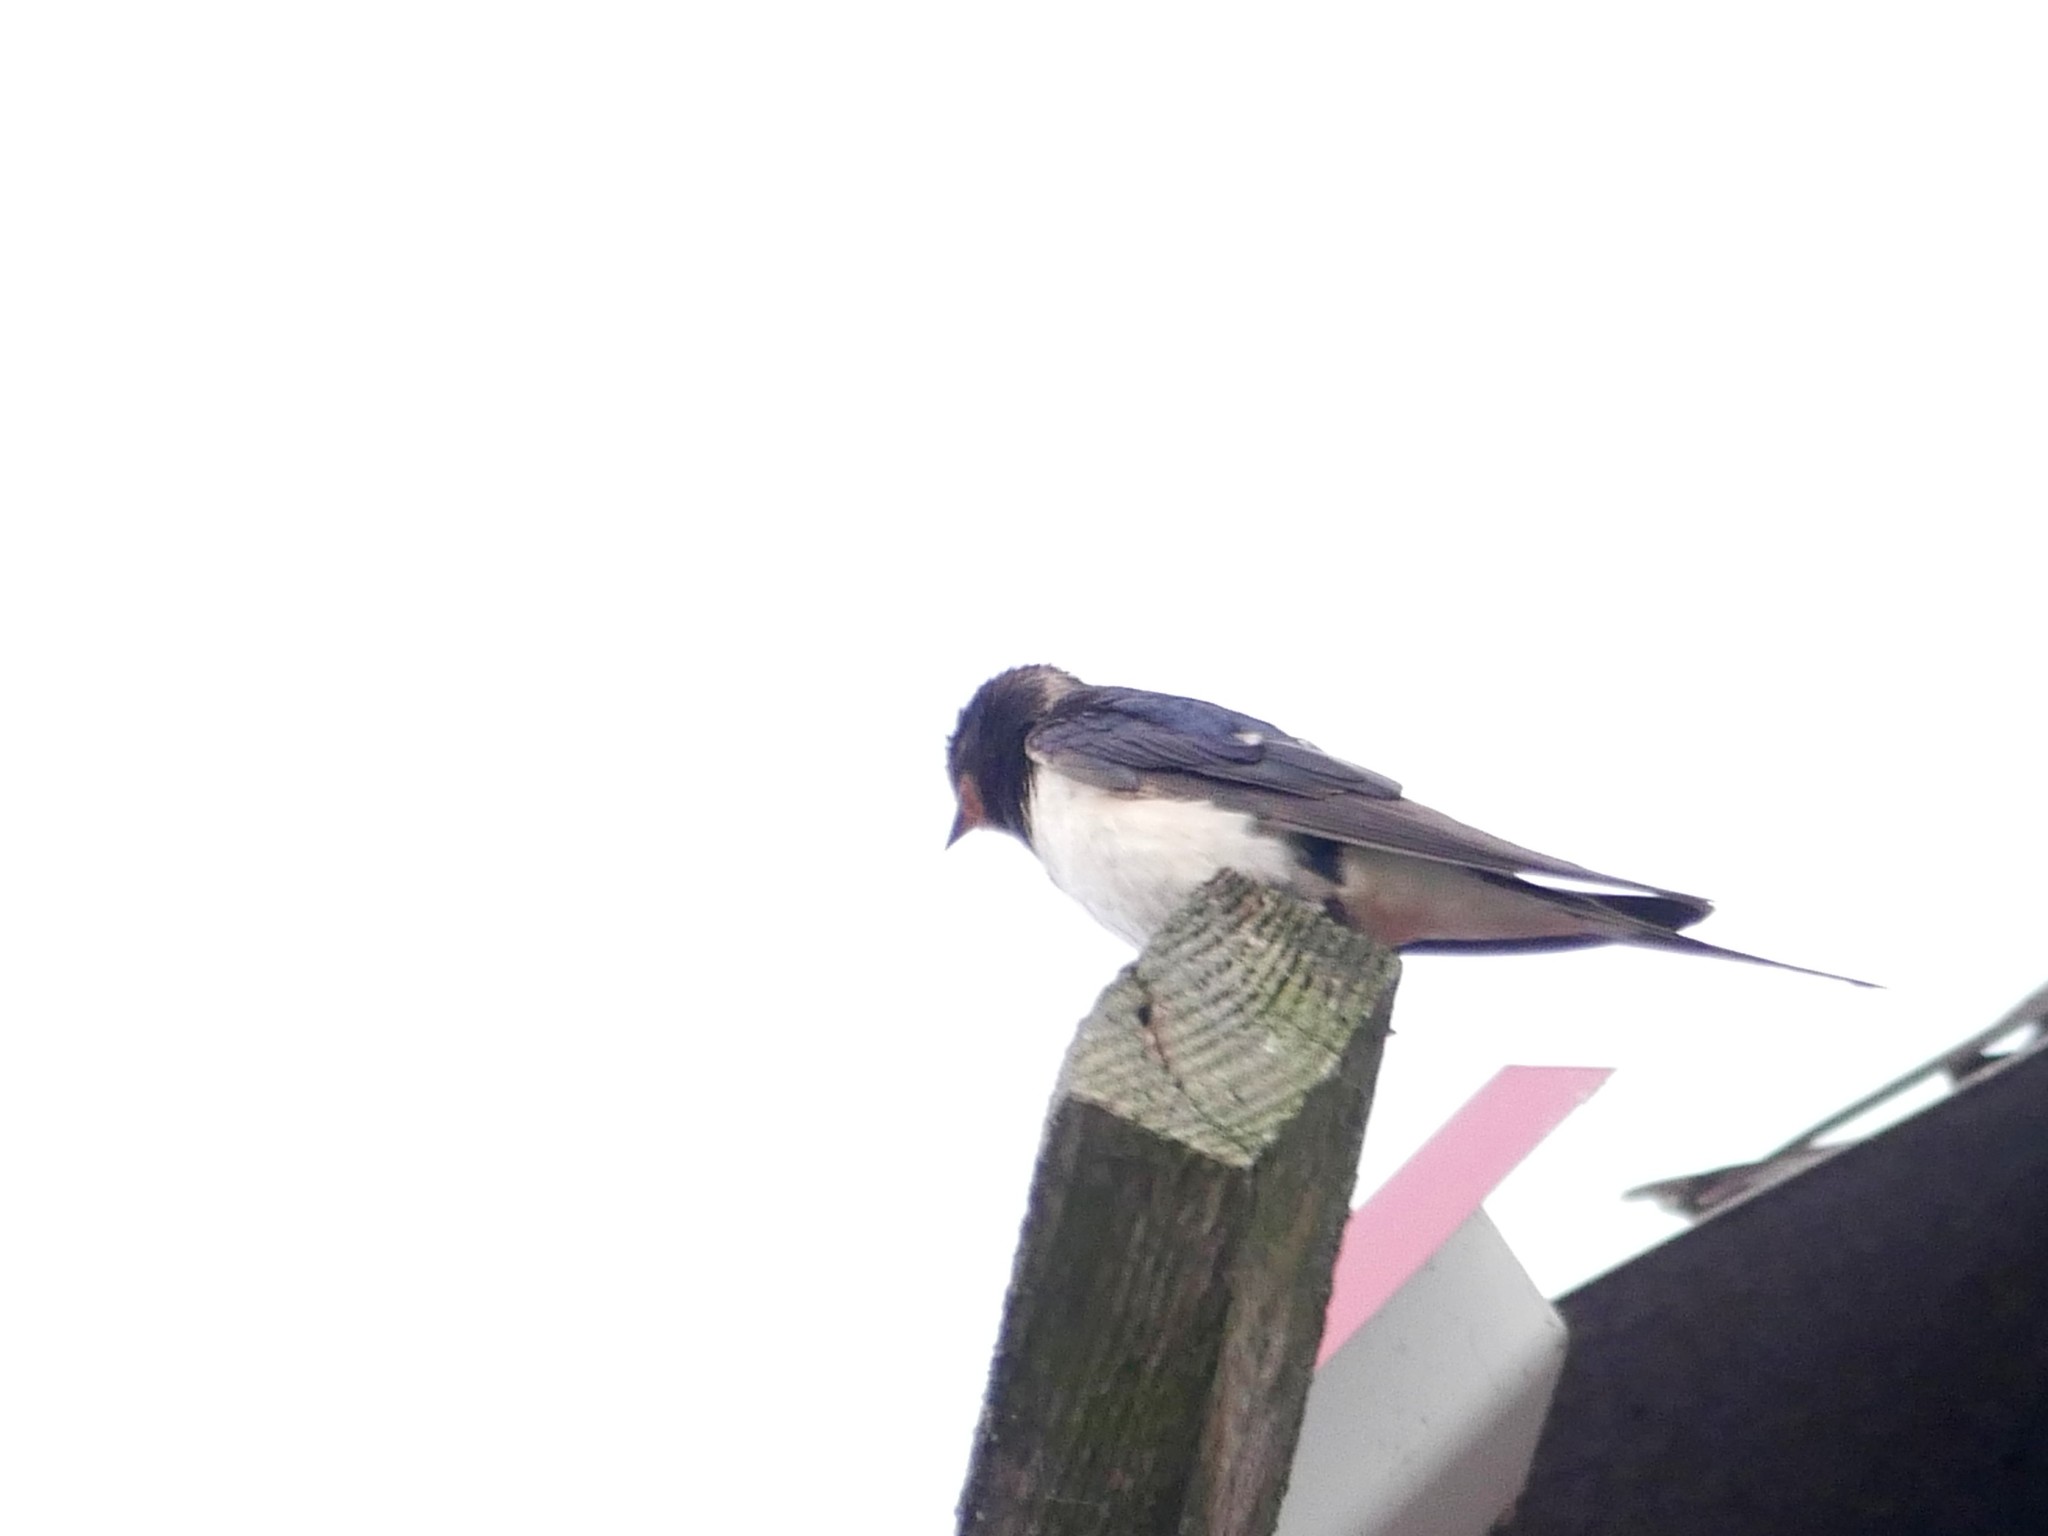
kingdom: Animalia
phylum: Chordata
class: Aves
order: Passeriformes
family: Hirundinidae
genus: Hirundo
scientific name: Hirundo rustica
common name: Barn swallow
